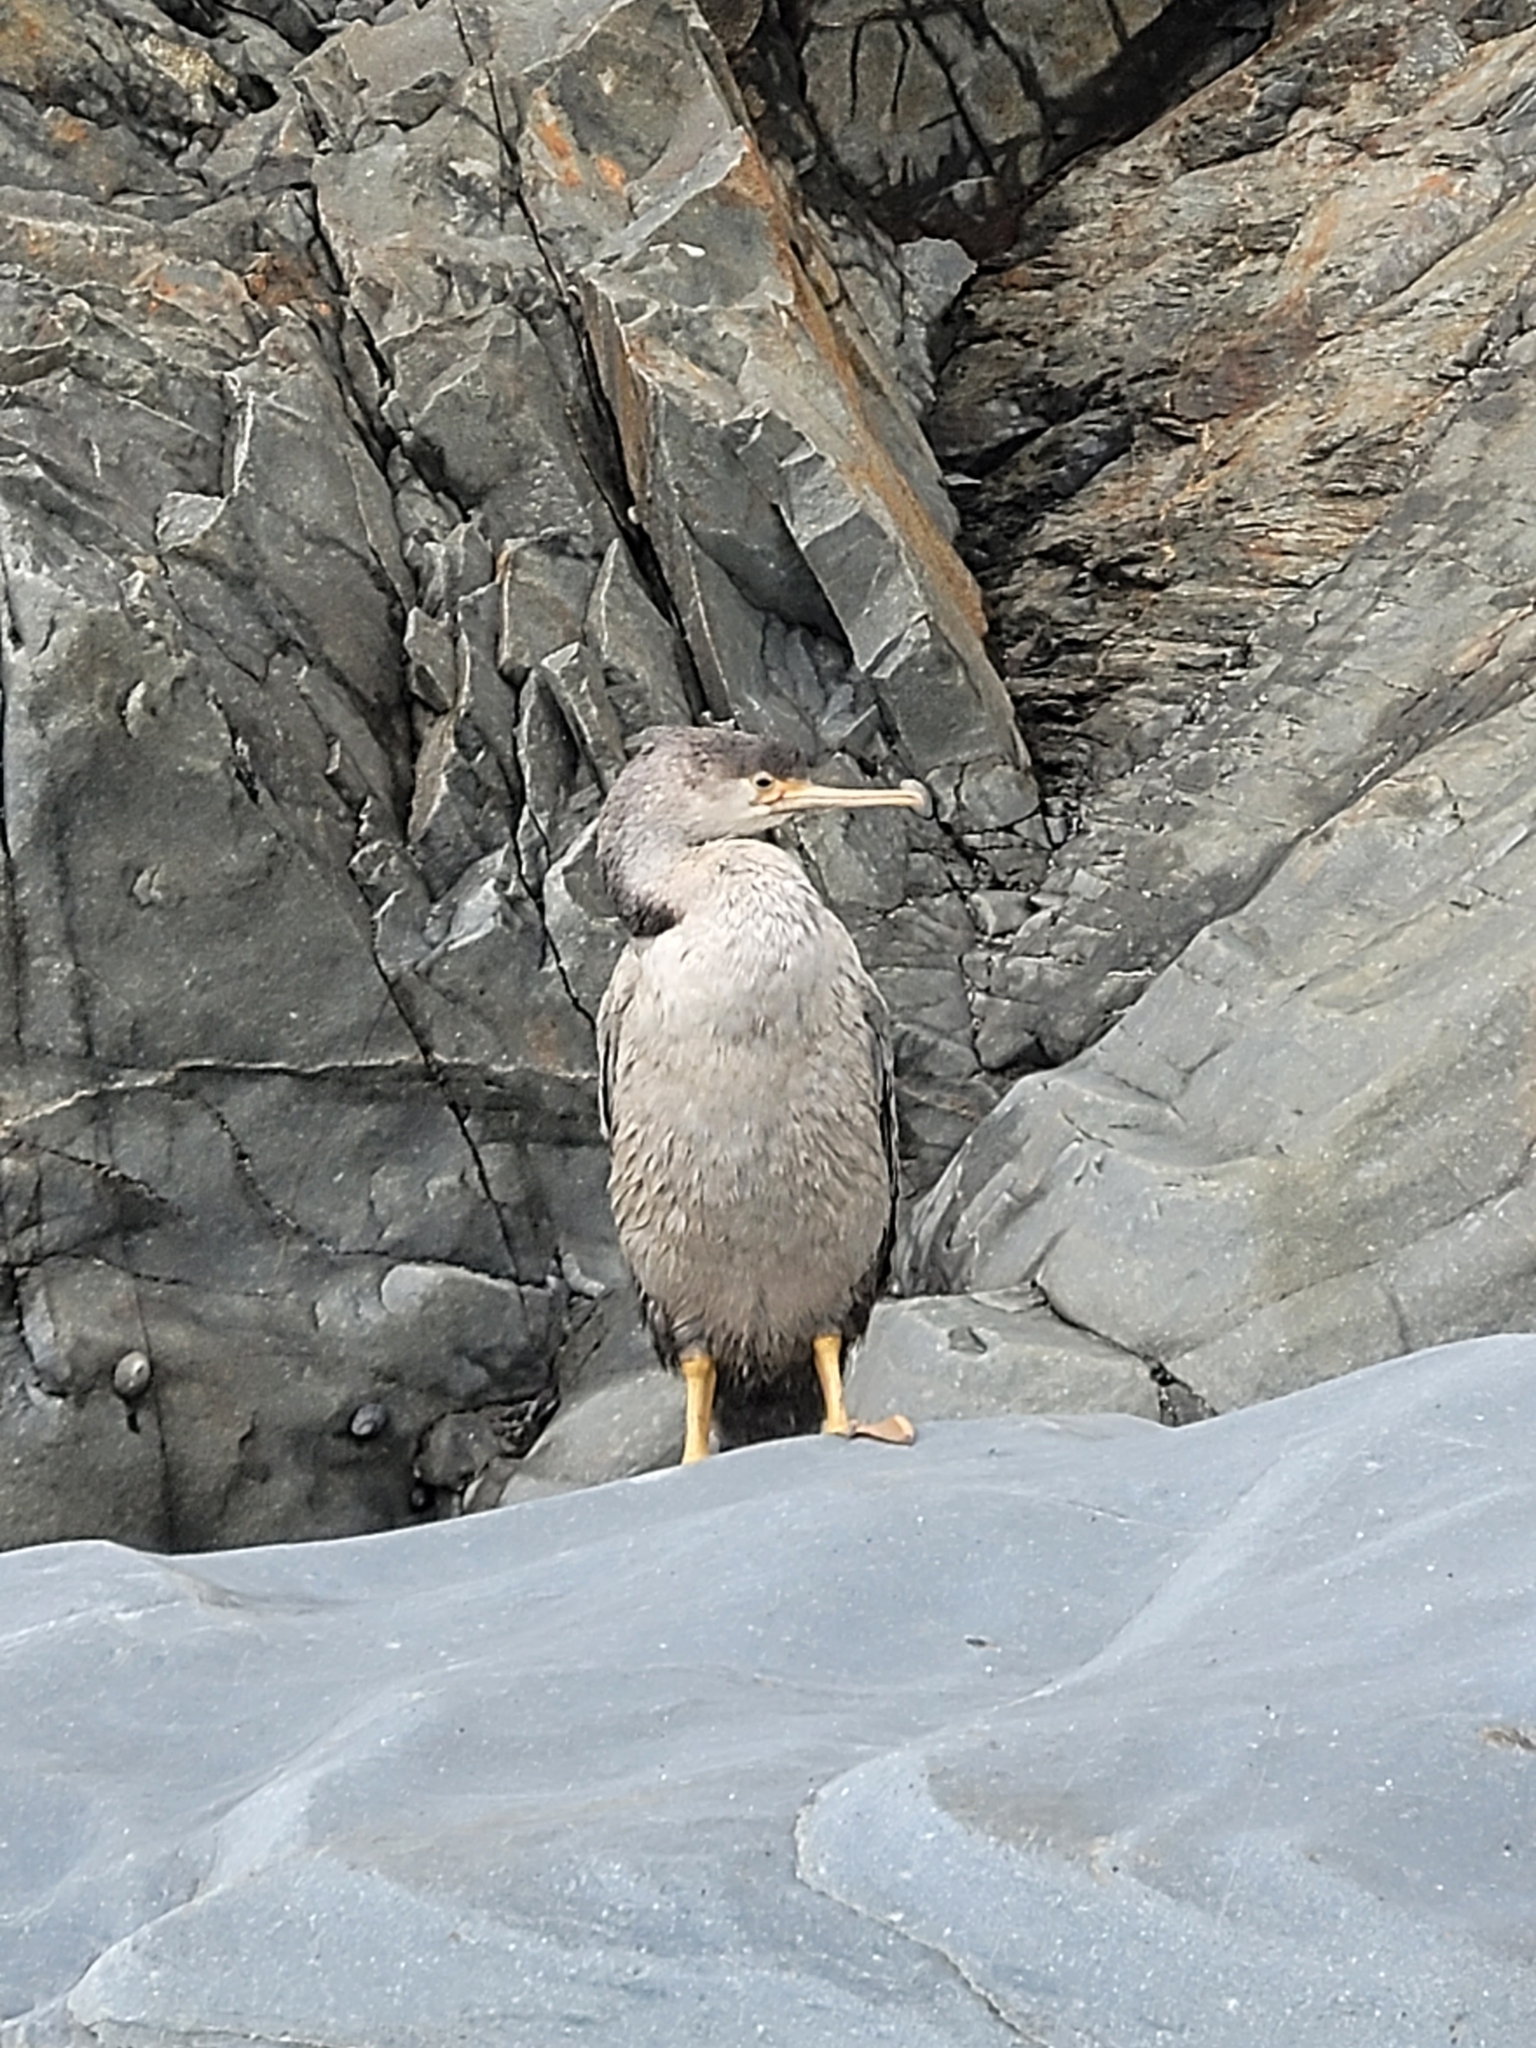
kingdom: Animalia
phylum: Chordata
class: Aves
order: Suliformes
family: Phalacrocoracidae
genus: Phalacrocorax
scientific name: Phalacrocorax punctatus
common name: Spotted shag
